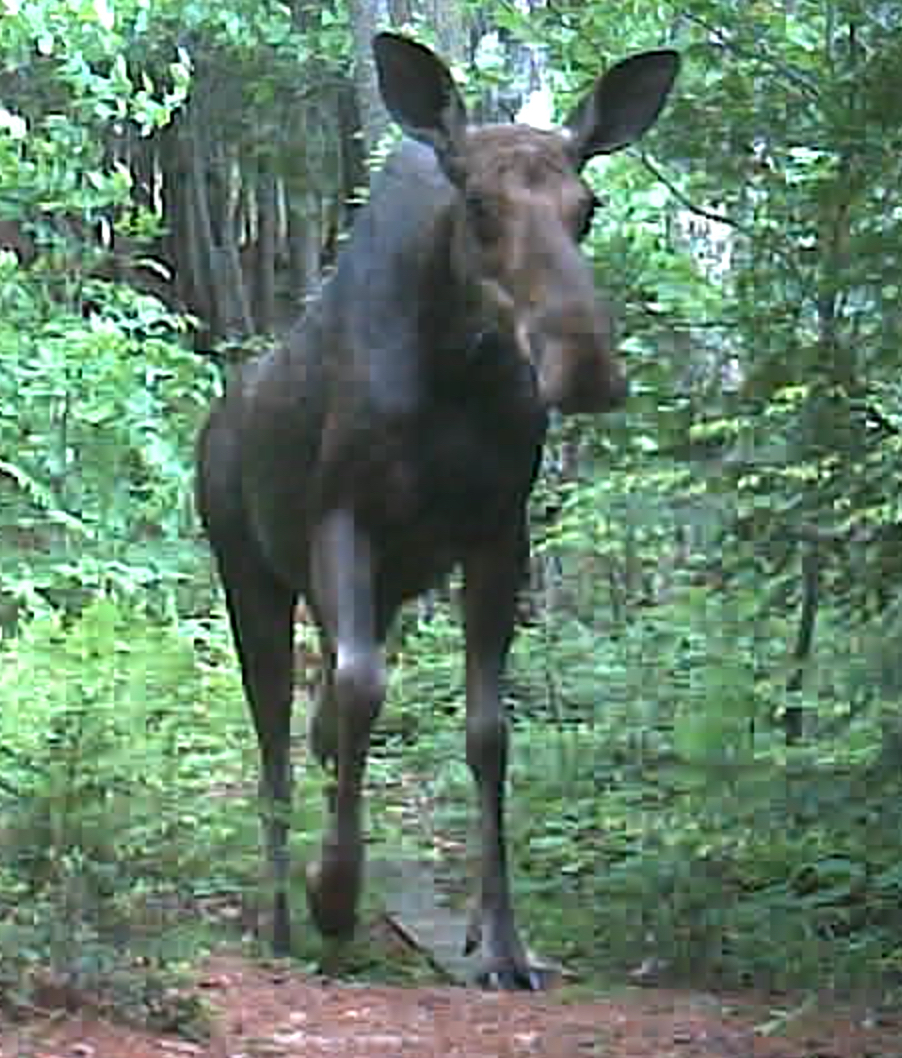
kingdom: Animalia
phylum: Chordata
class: Mammalia
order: Artiodactyla
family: Cervidae
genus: Alces
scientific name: Alces alces
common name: Moose
